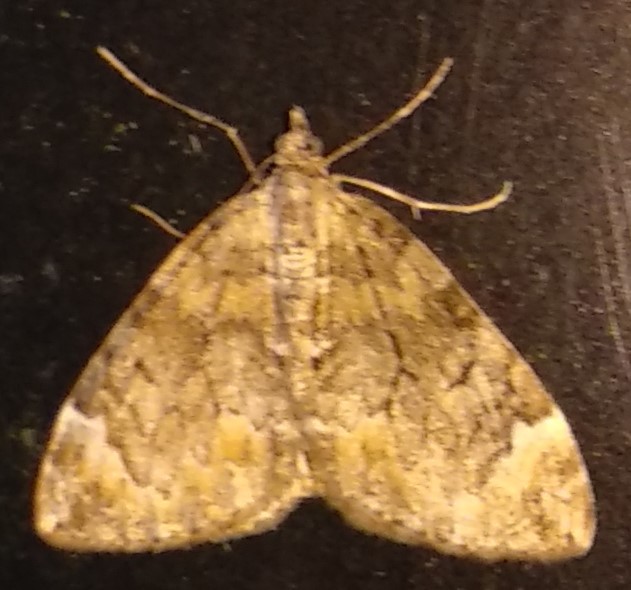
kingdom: Animalia
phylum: Arthropoda
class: Insecta
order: Lepidoptera
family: Geometridae
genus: Dysstroma
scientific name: Dysstroma citrata
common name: Dark marbled carpet
